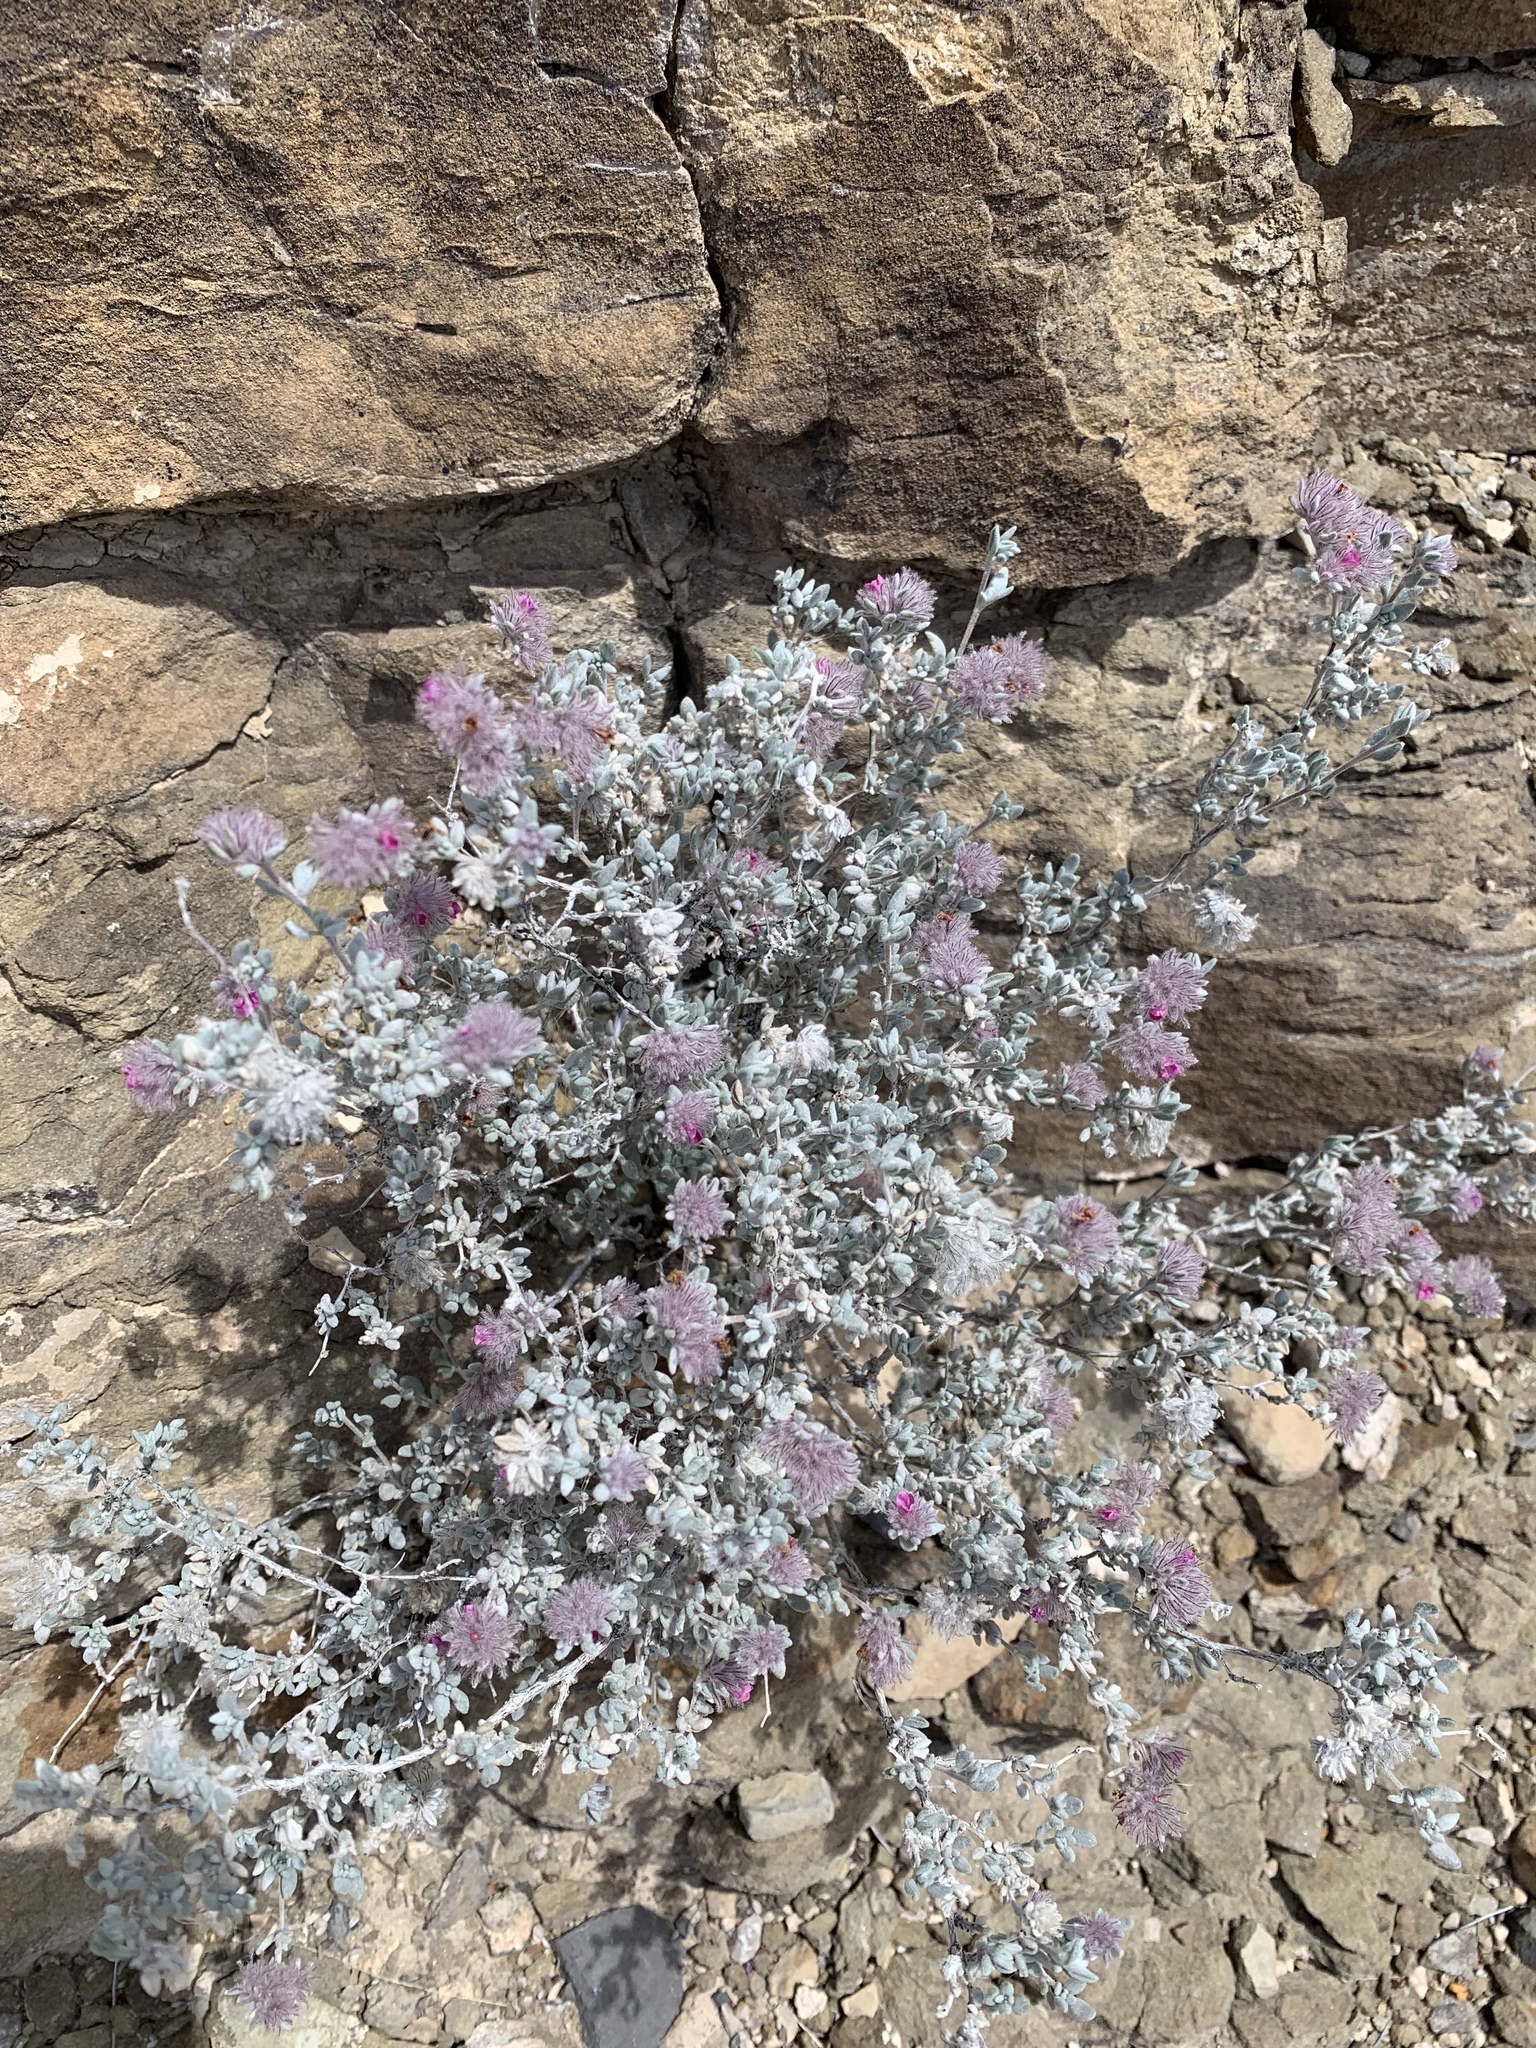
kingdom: Plantae
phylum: Tracheophyta
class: Magnoliopsida
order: Boraginales
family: Ehretiaceae
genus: Tiquilia
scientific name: Tiquilia greggii
